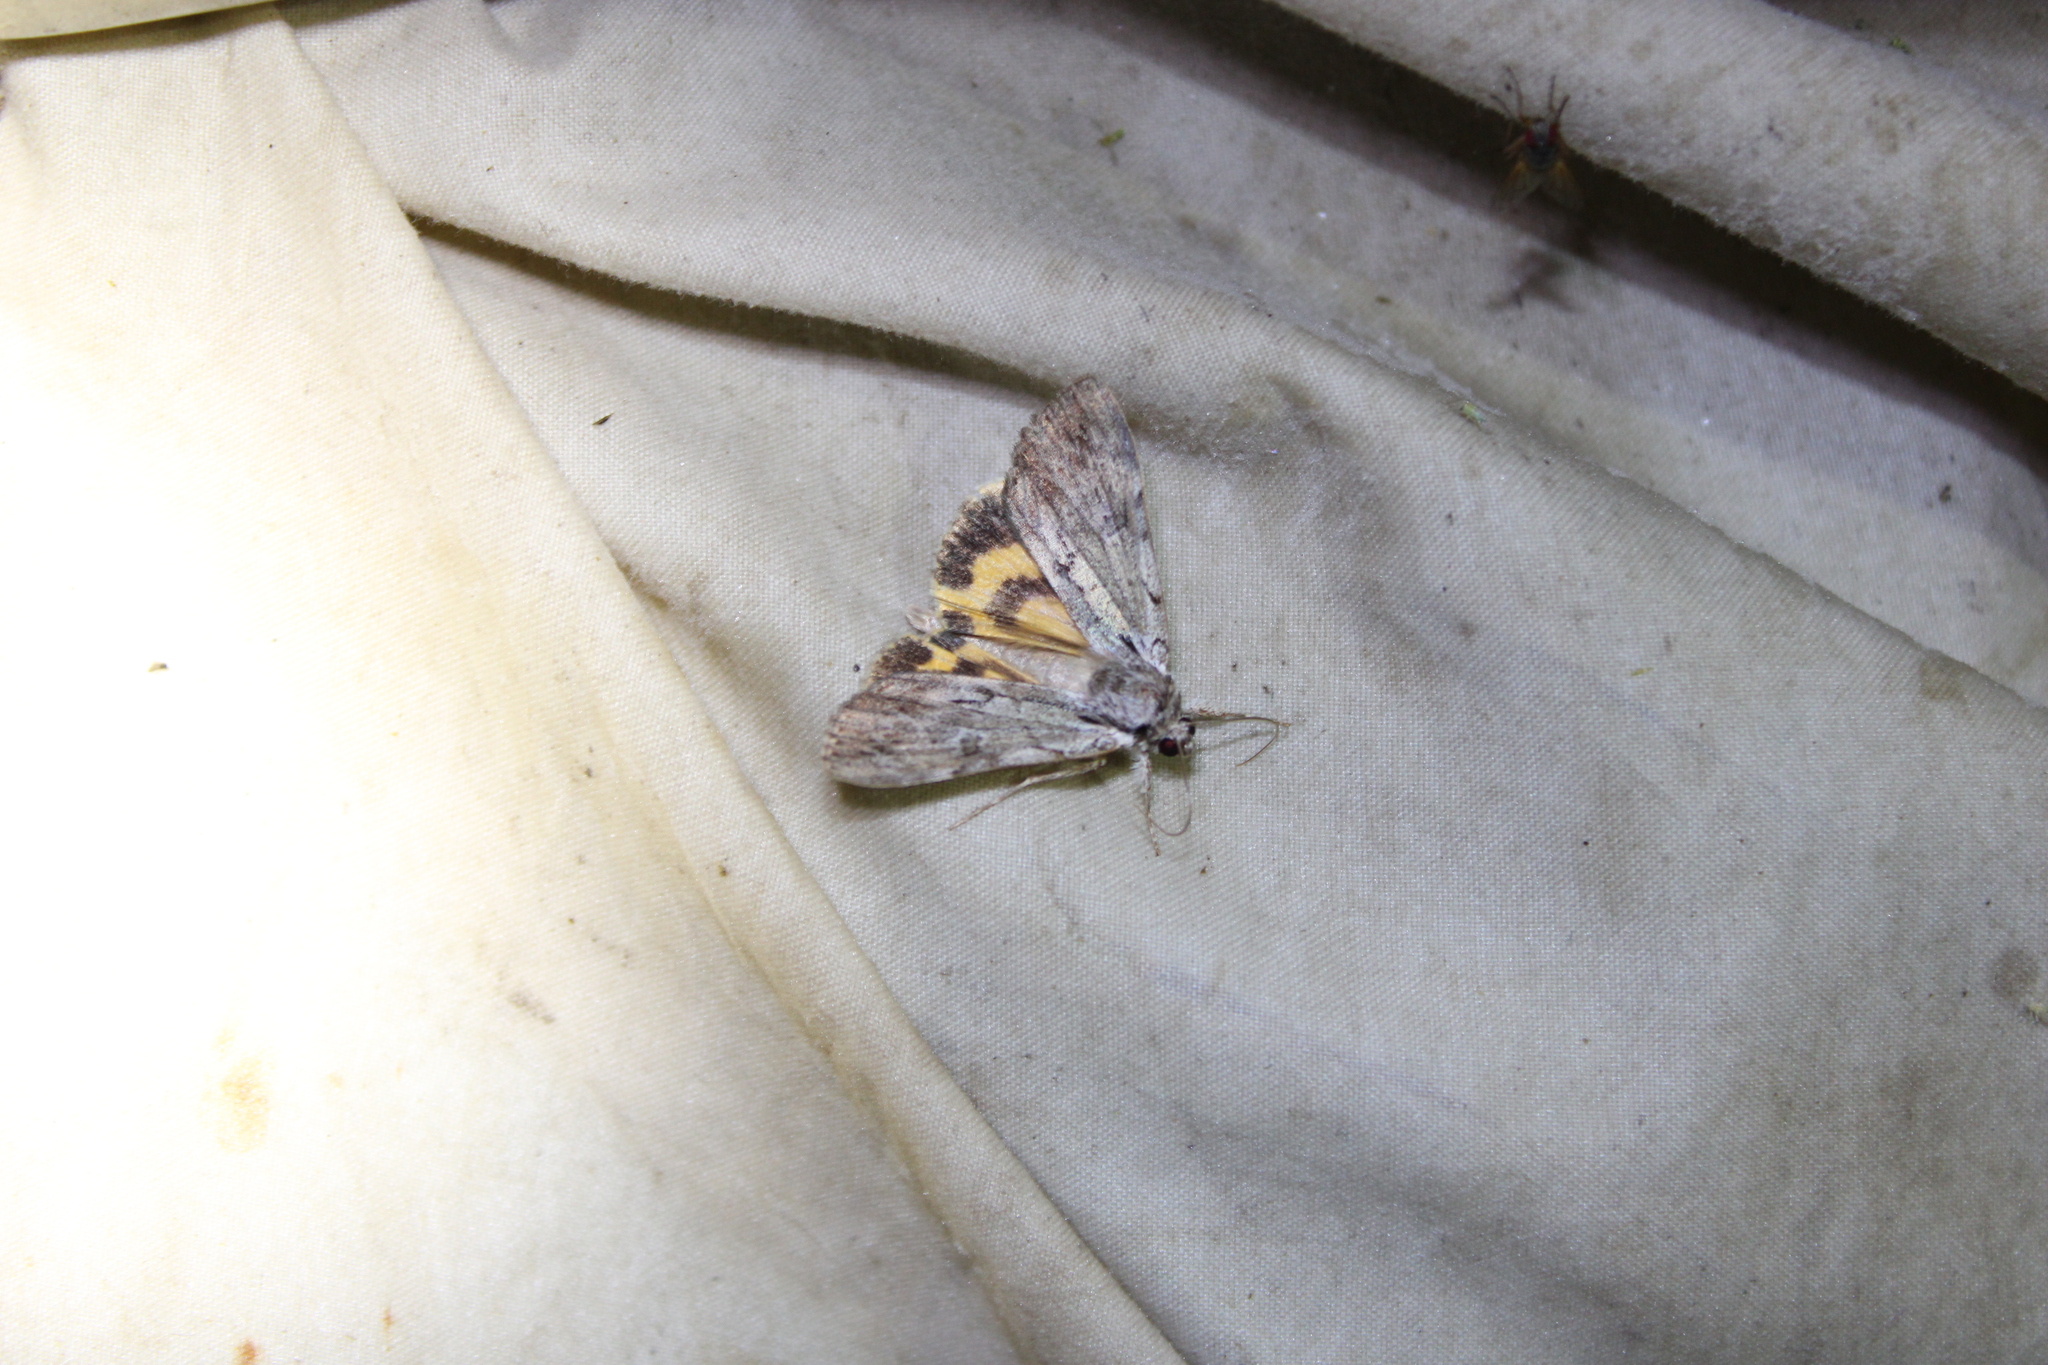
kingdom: Animalia
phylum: Arthropoda
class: Insecta
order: Lepidoptera
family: Erebidae
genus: Catocala
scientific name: Catocala gracilis
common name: Graceful underwing
